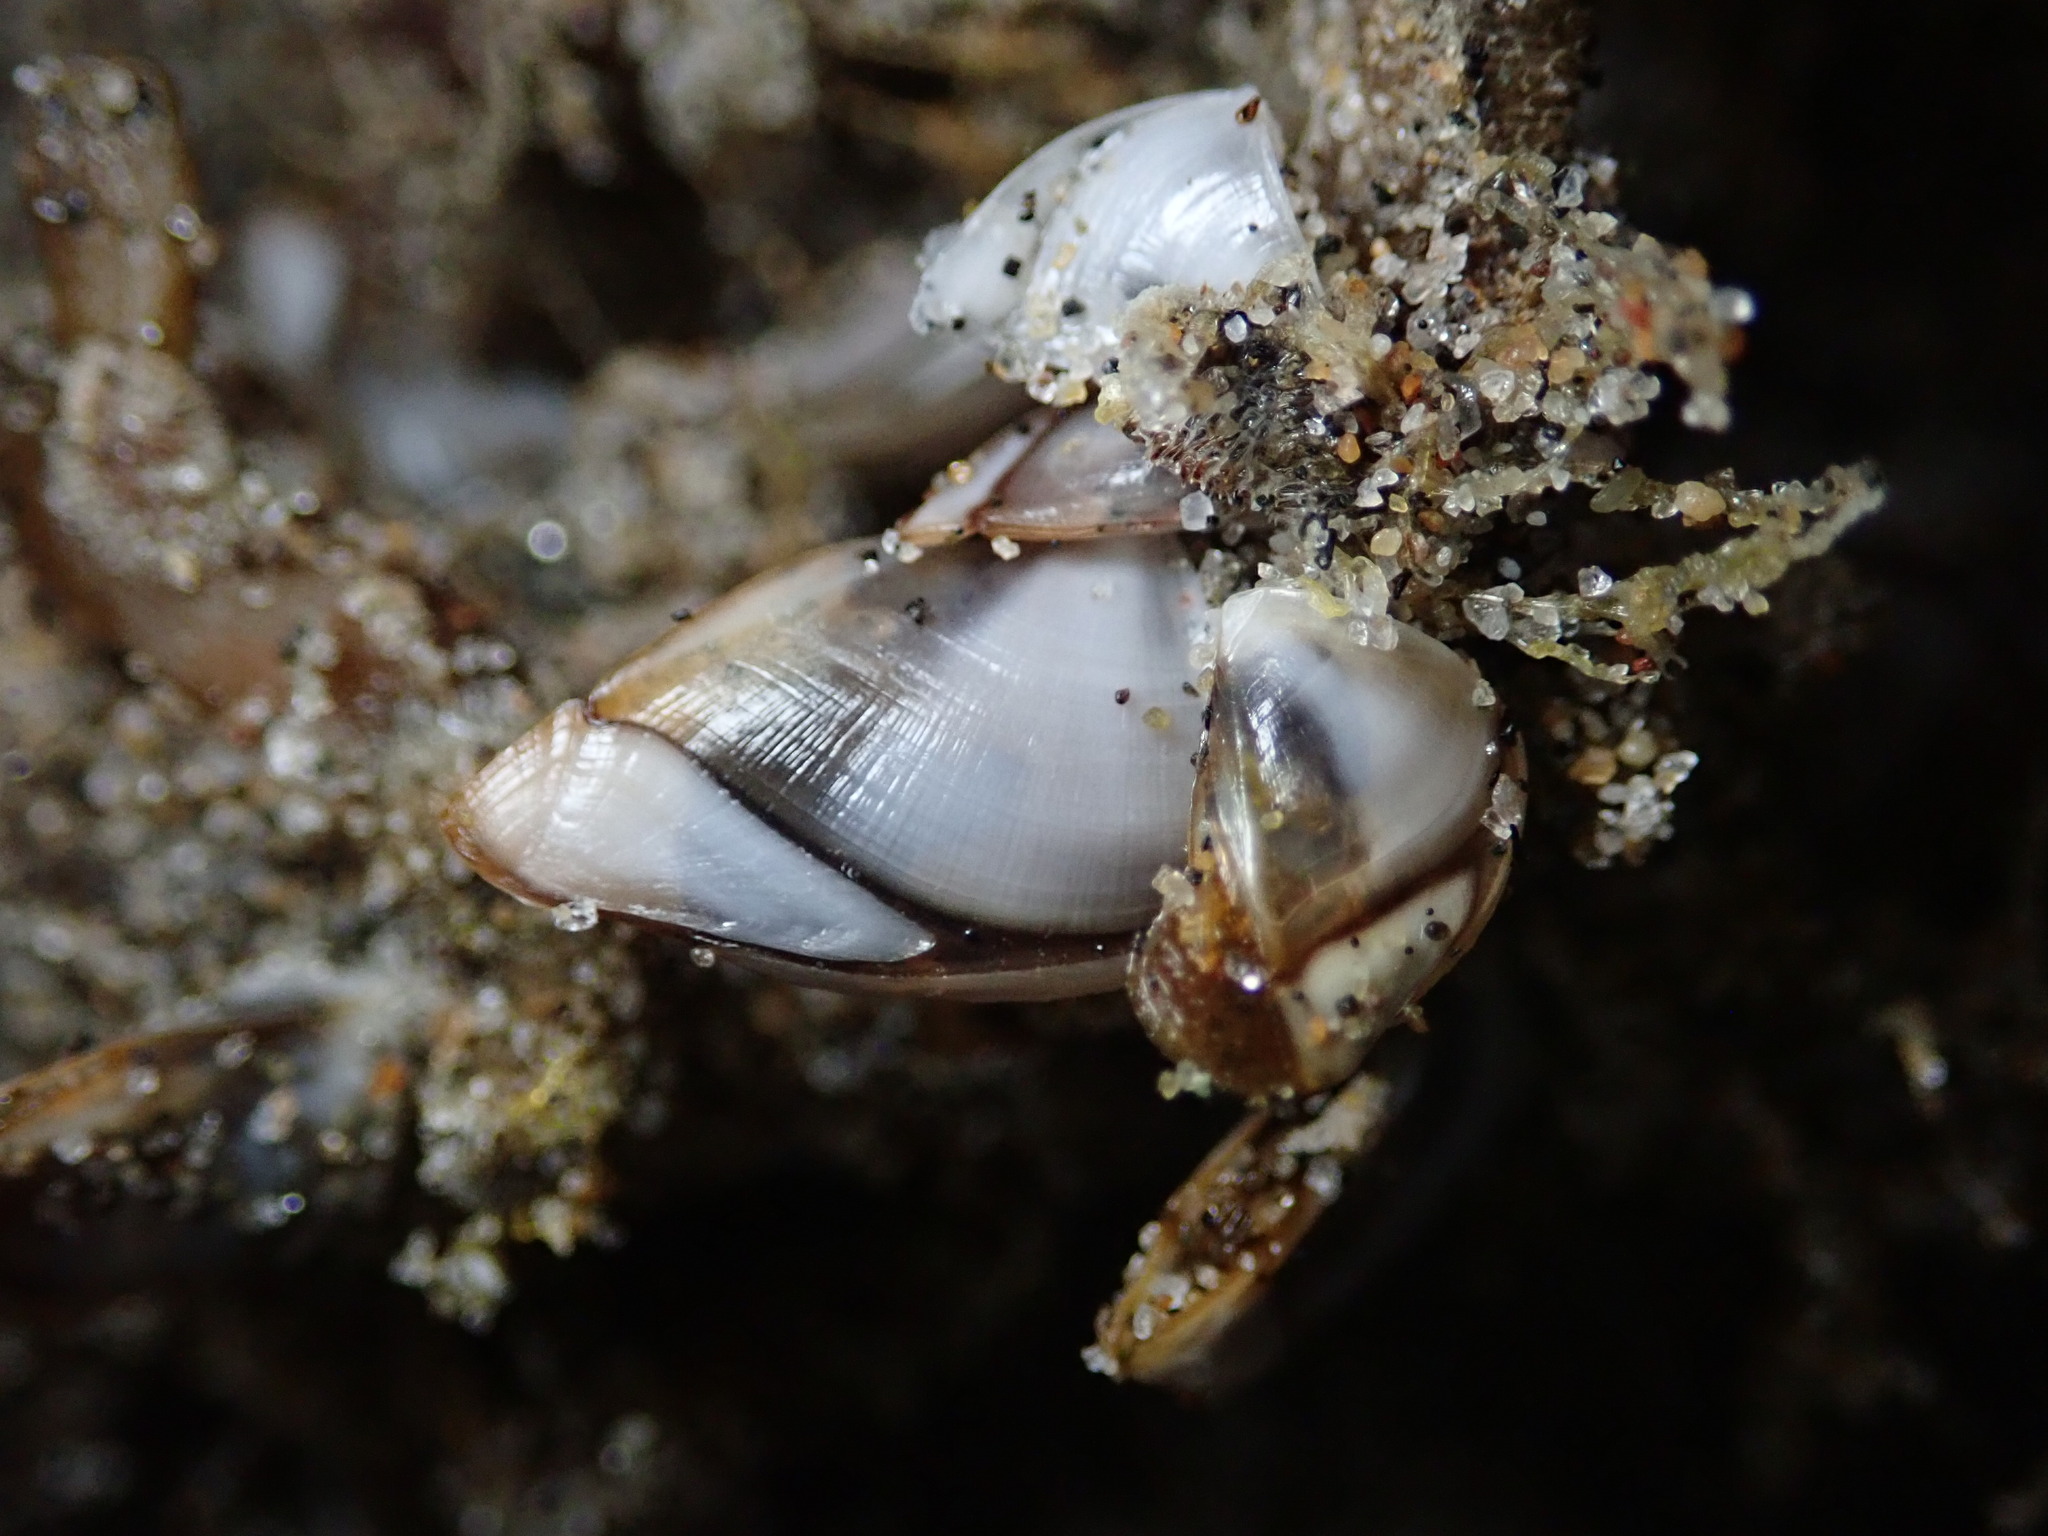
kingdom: Animalia
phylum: Arthropoda
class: Maxillopoda
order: Pedunculata
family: Lepadidae
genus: Lepas
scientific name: Lepas pacifica
